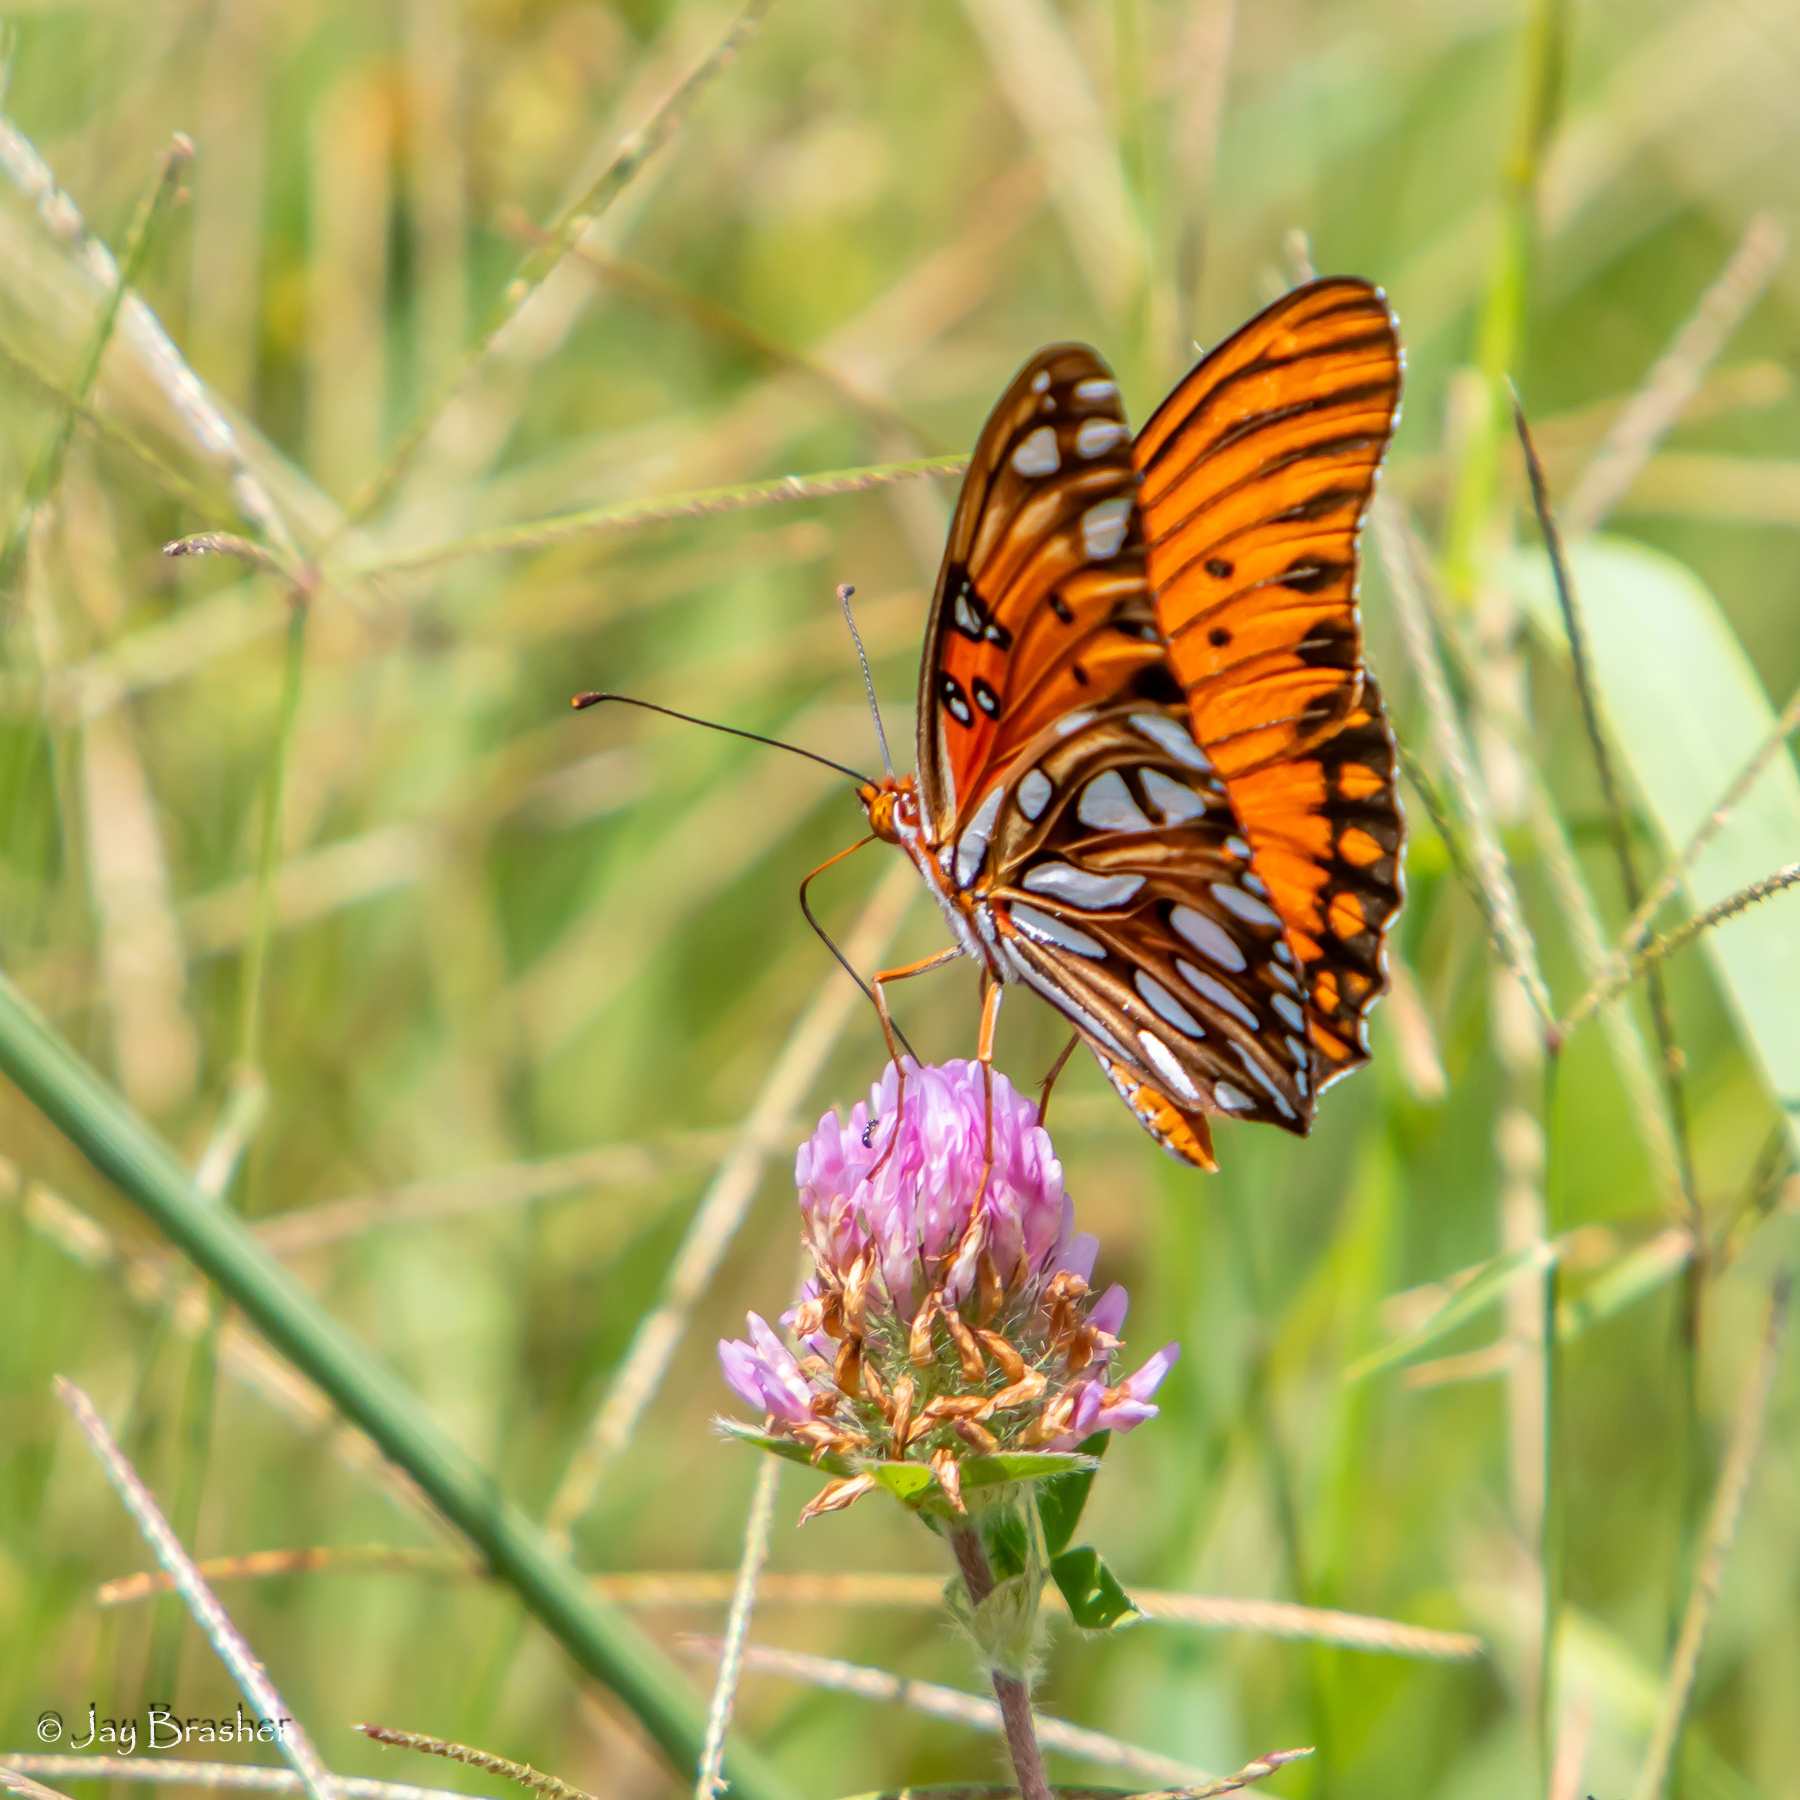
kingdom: Plantae
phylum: Tracheophyta
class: Magnoliopsida
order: Fabales
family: Fabaceae
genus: Trifolium
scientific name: Trifolium pratense
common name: Red clover
